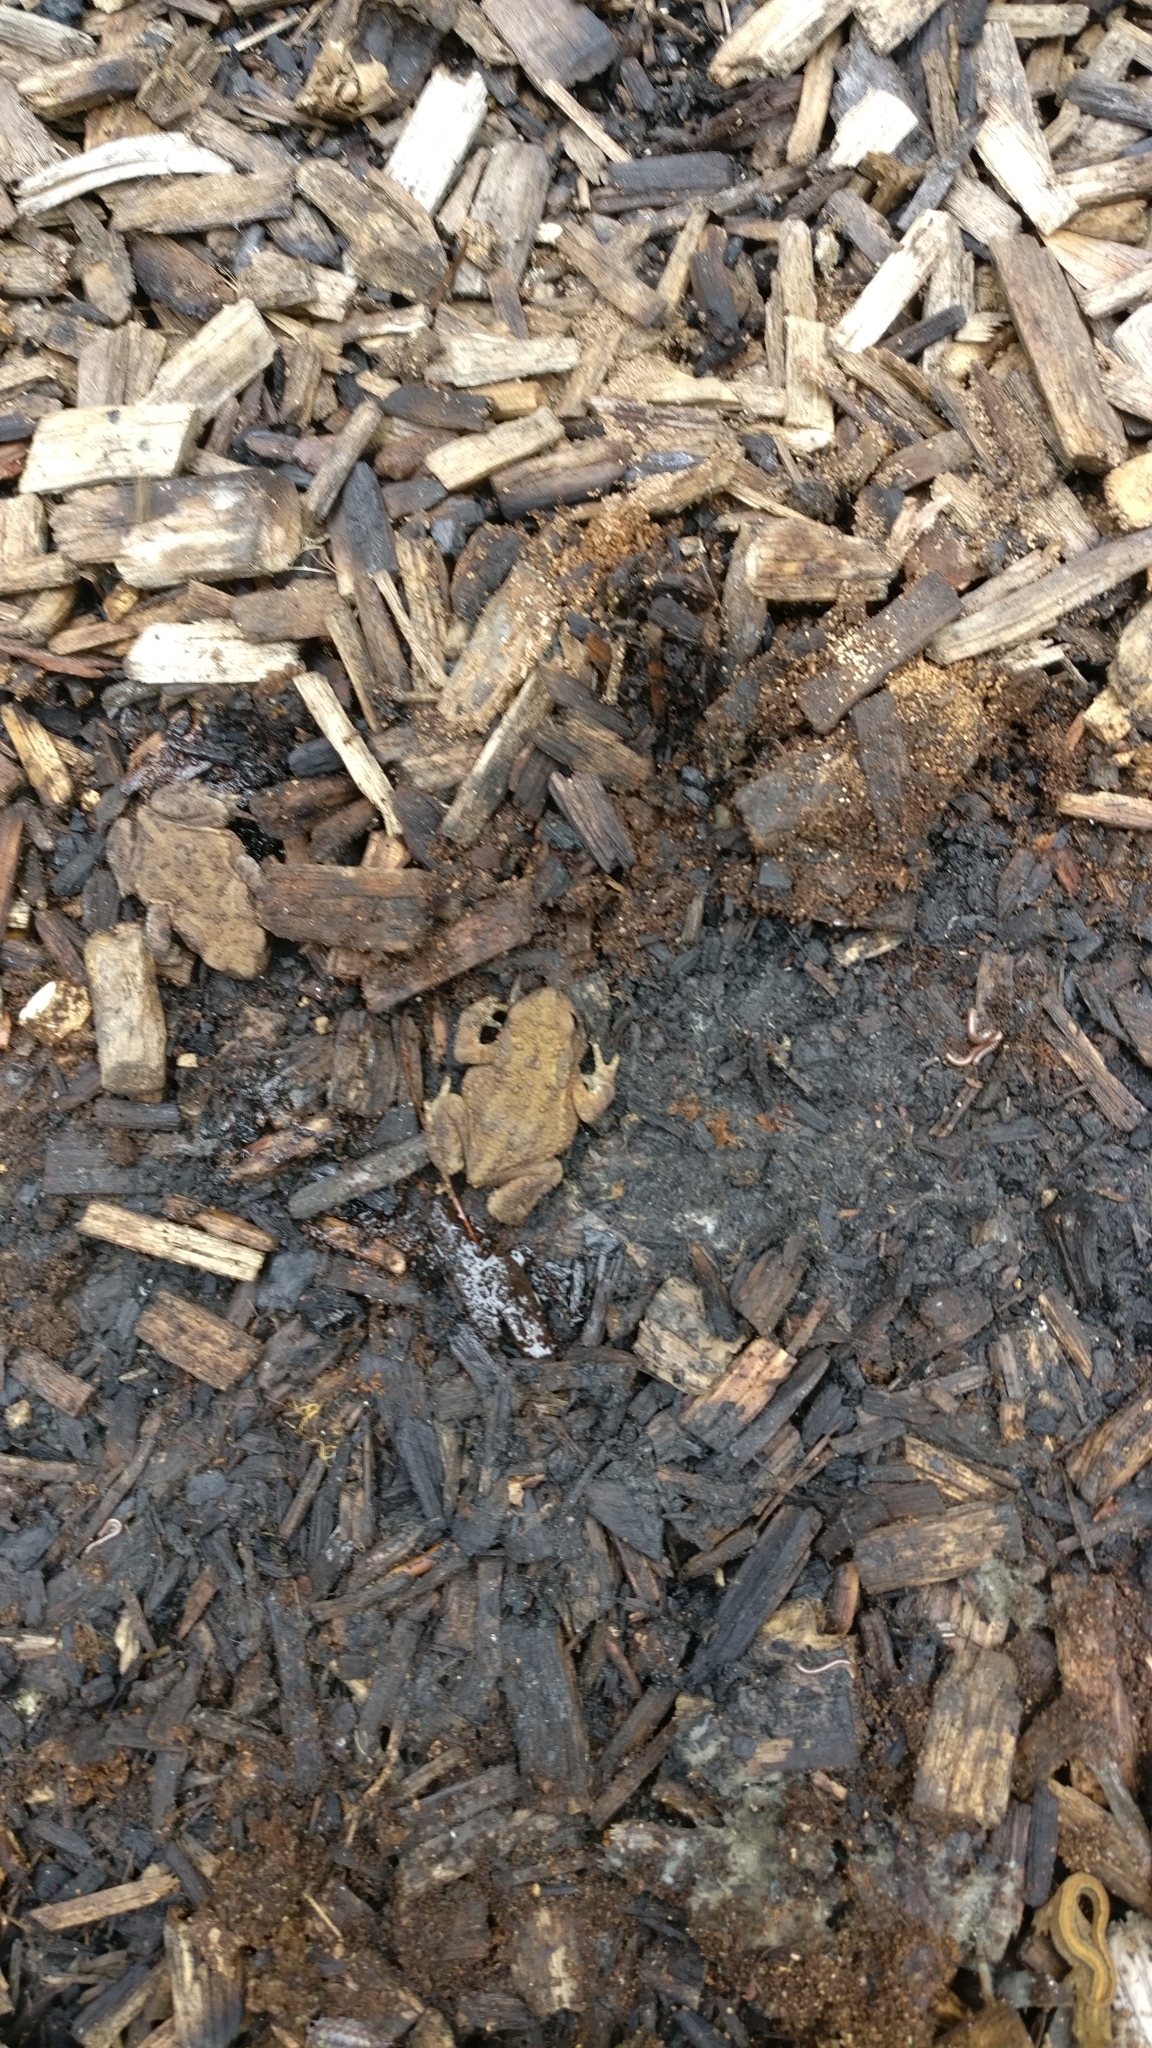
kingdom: Animalia
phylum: Chordata
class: Amphibia
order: Anura
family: Bufonidae
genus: Bufo
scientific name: Bufo bufo
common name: Common toad
